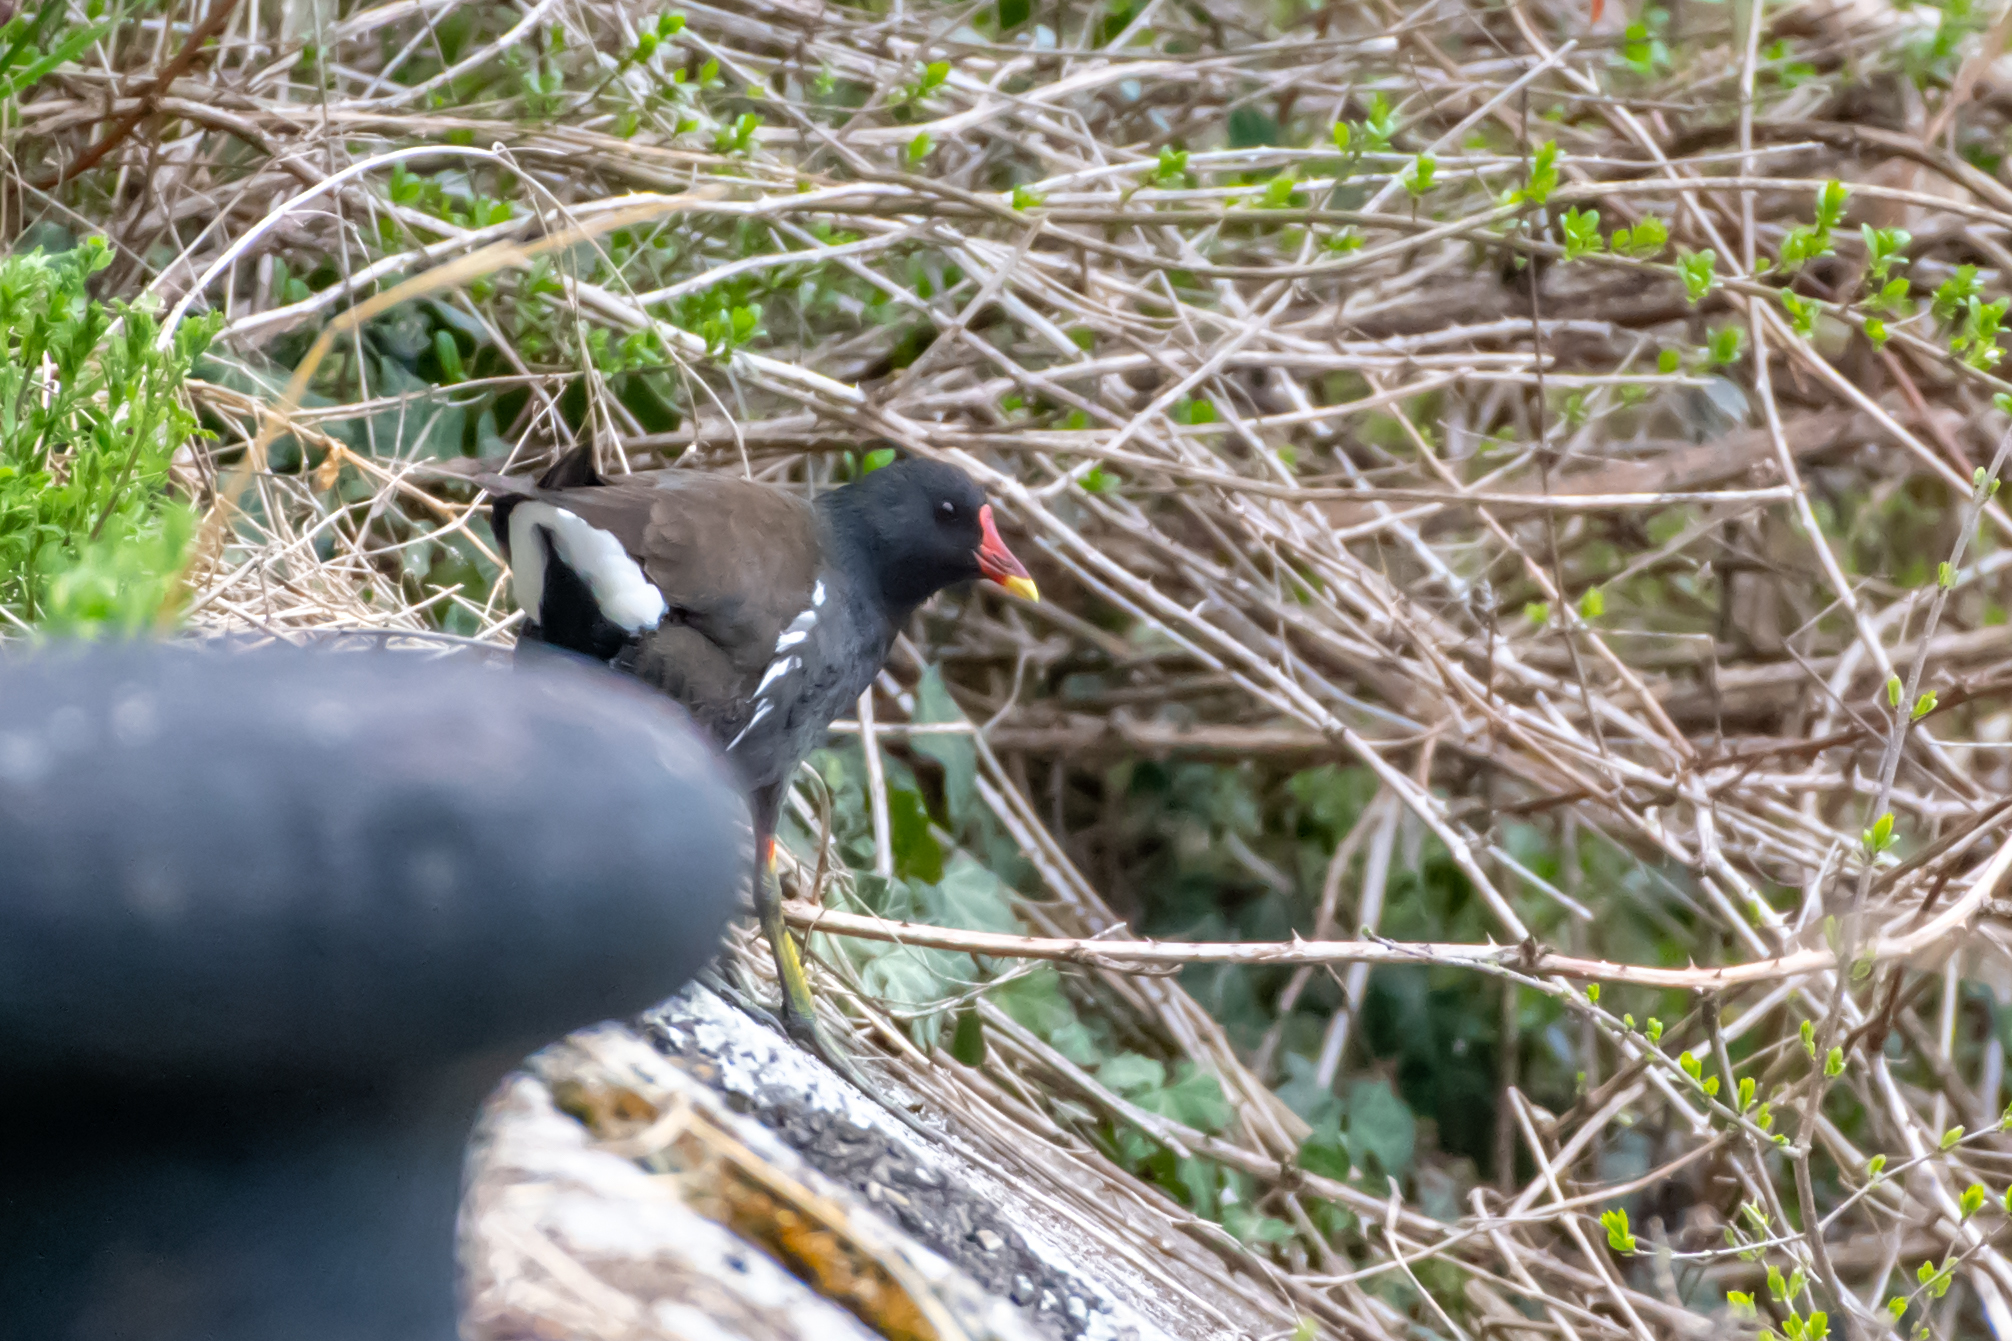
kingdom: Animalia
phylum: Chordata
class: Aves
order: Gruiformes
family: Rallidae
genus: Gallinula
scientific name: Gallinula chloropus
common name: Common moorhen
